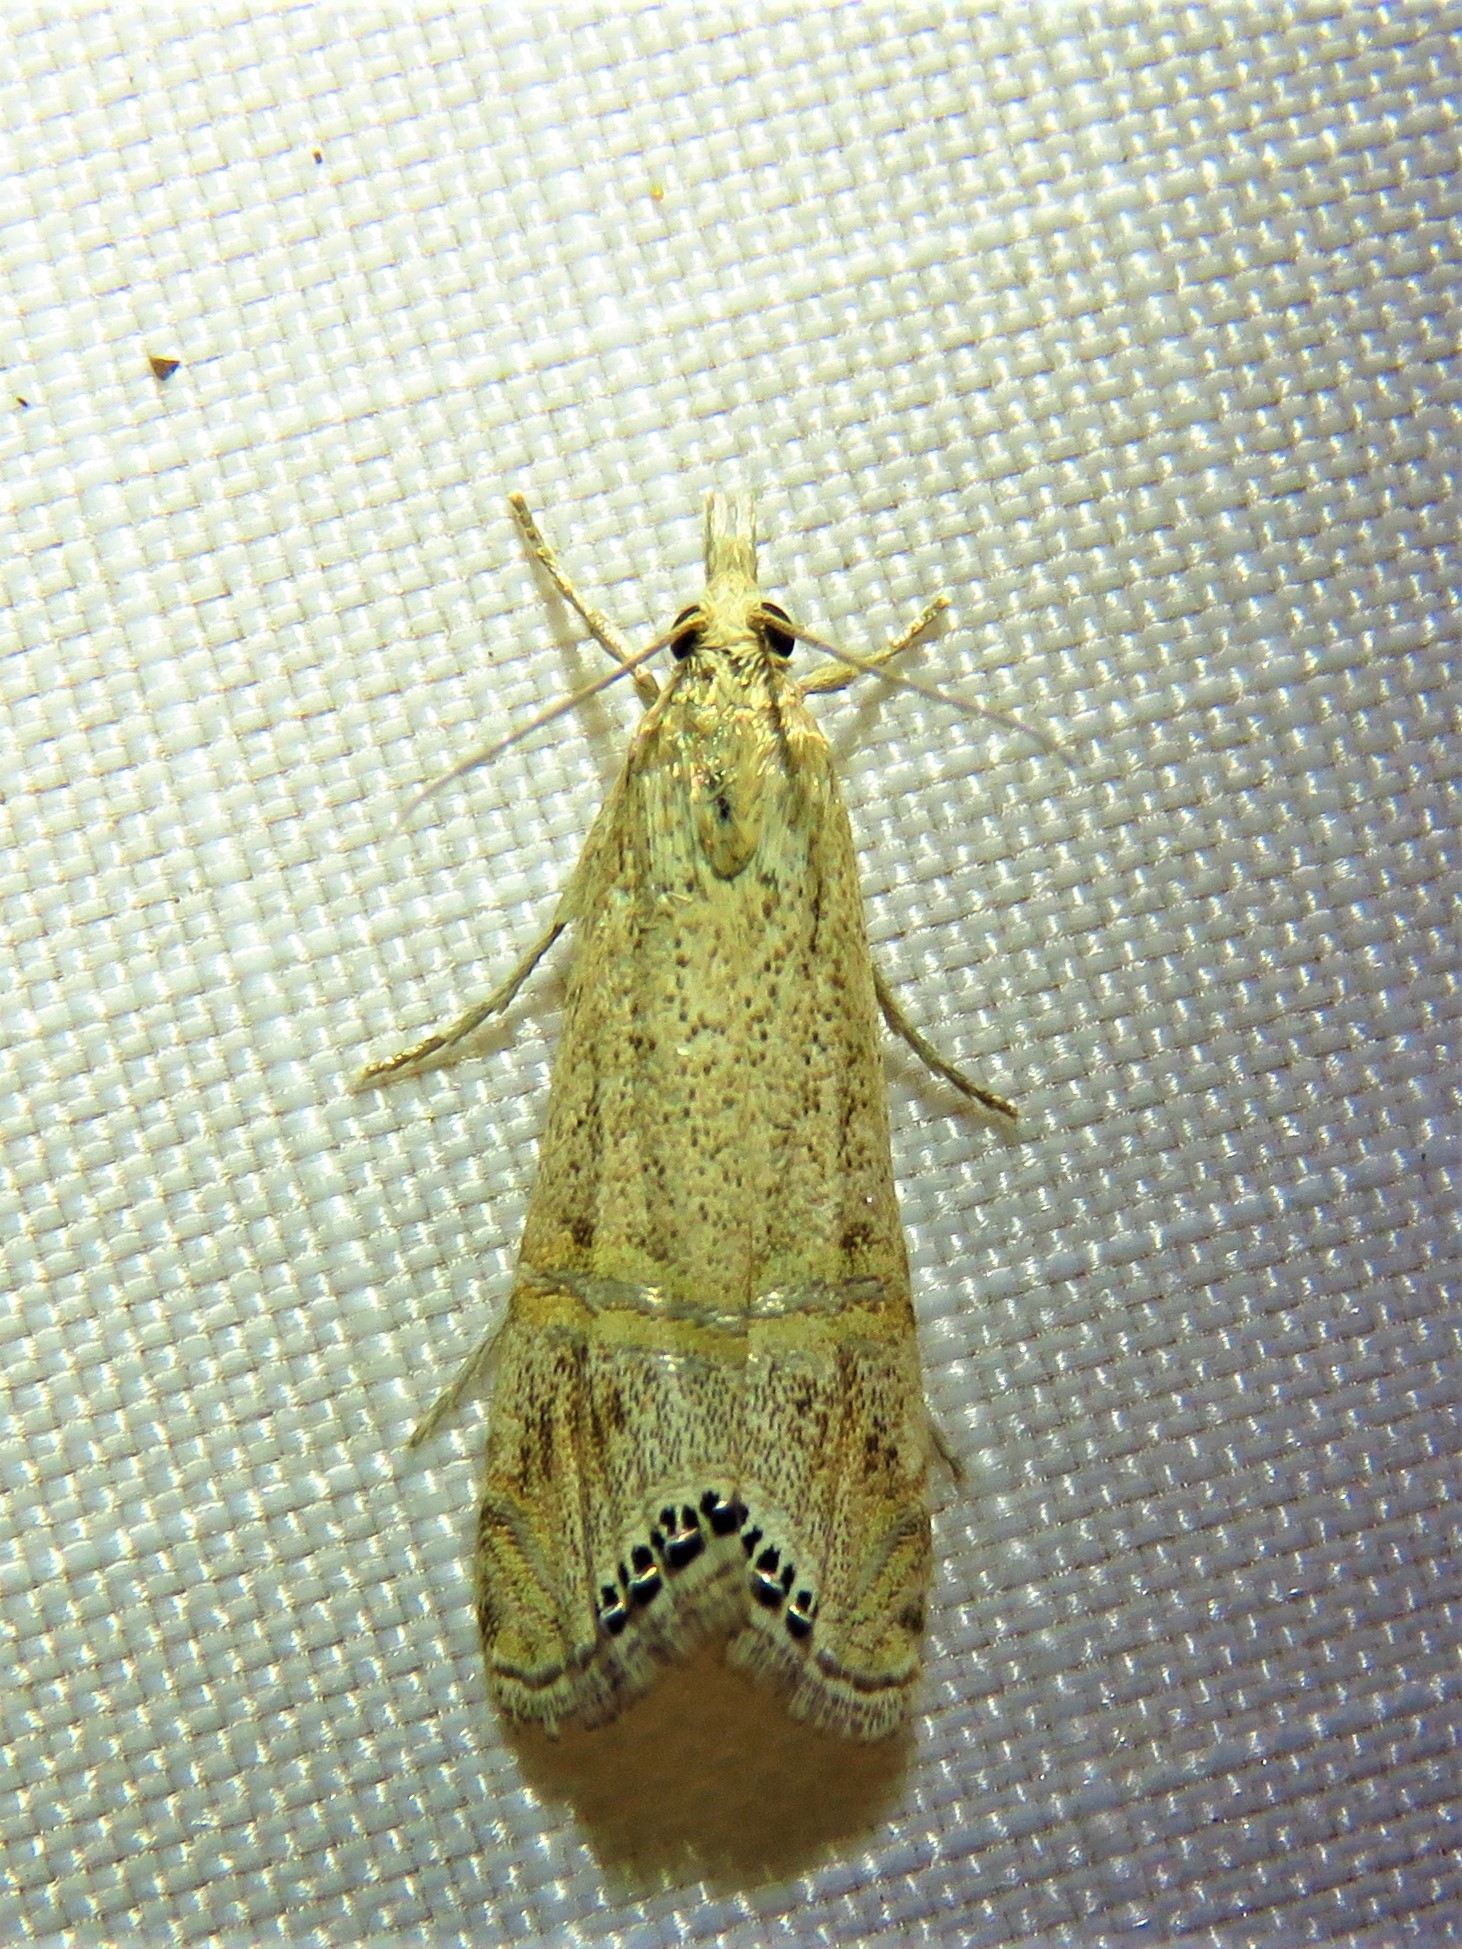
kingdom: Animalia
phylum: Arthropoda
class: Insecta
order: Lepidoptera
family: Crambidae
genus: Euchromius
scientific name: Euchromius ocellea
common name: Necklace veneer moth
